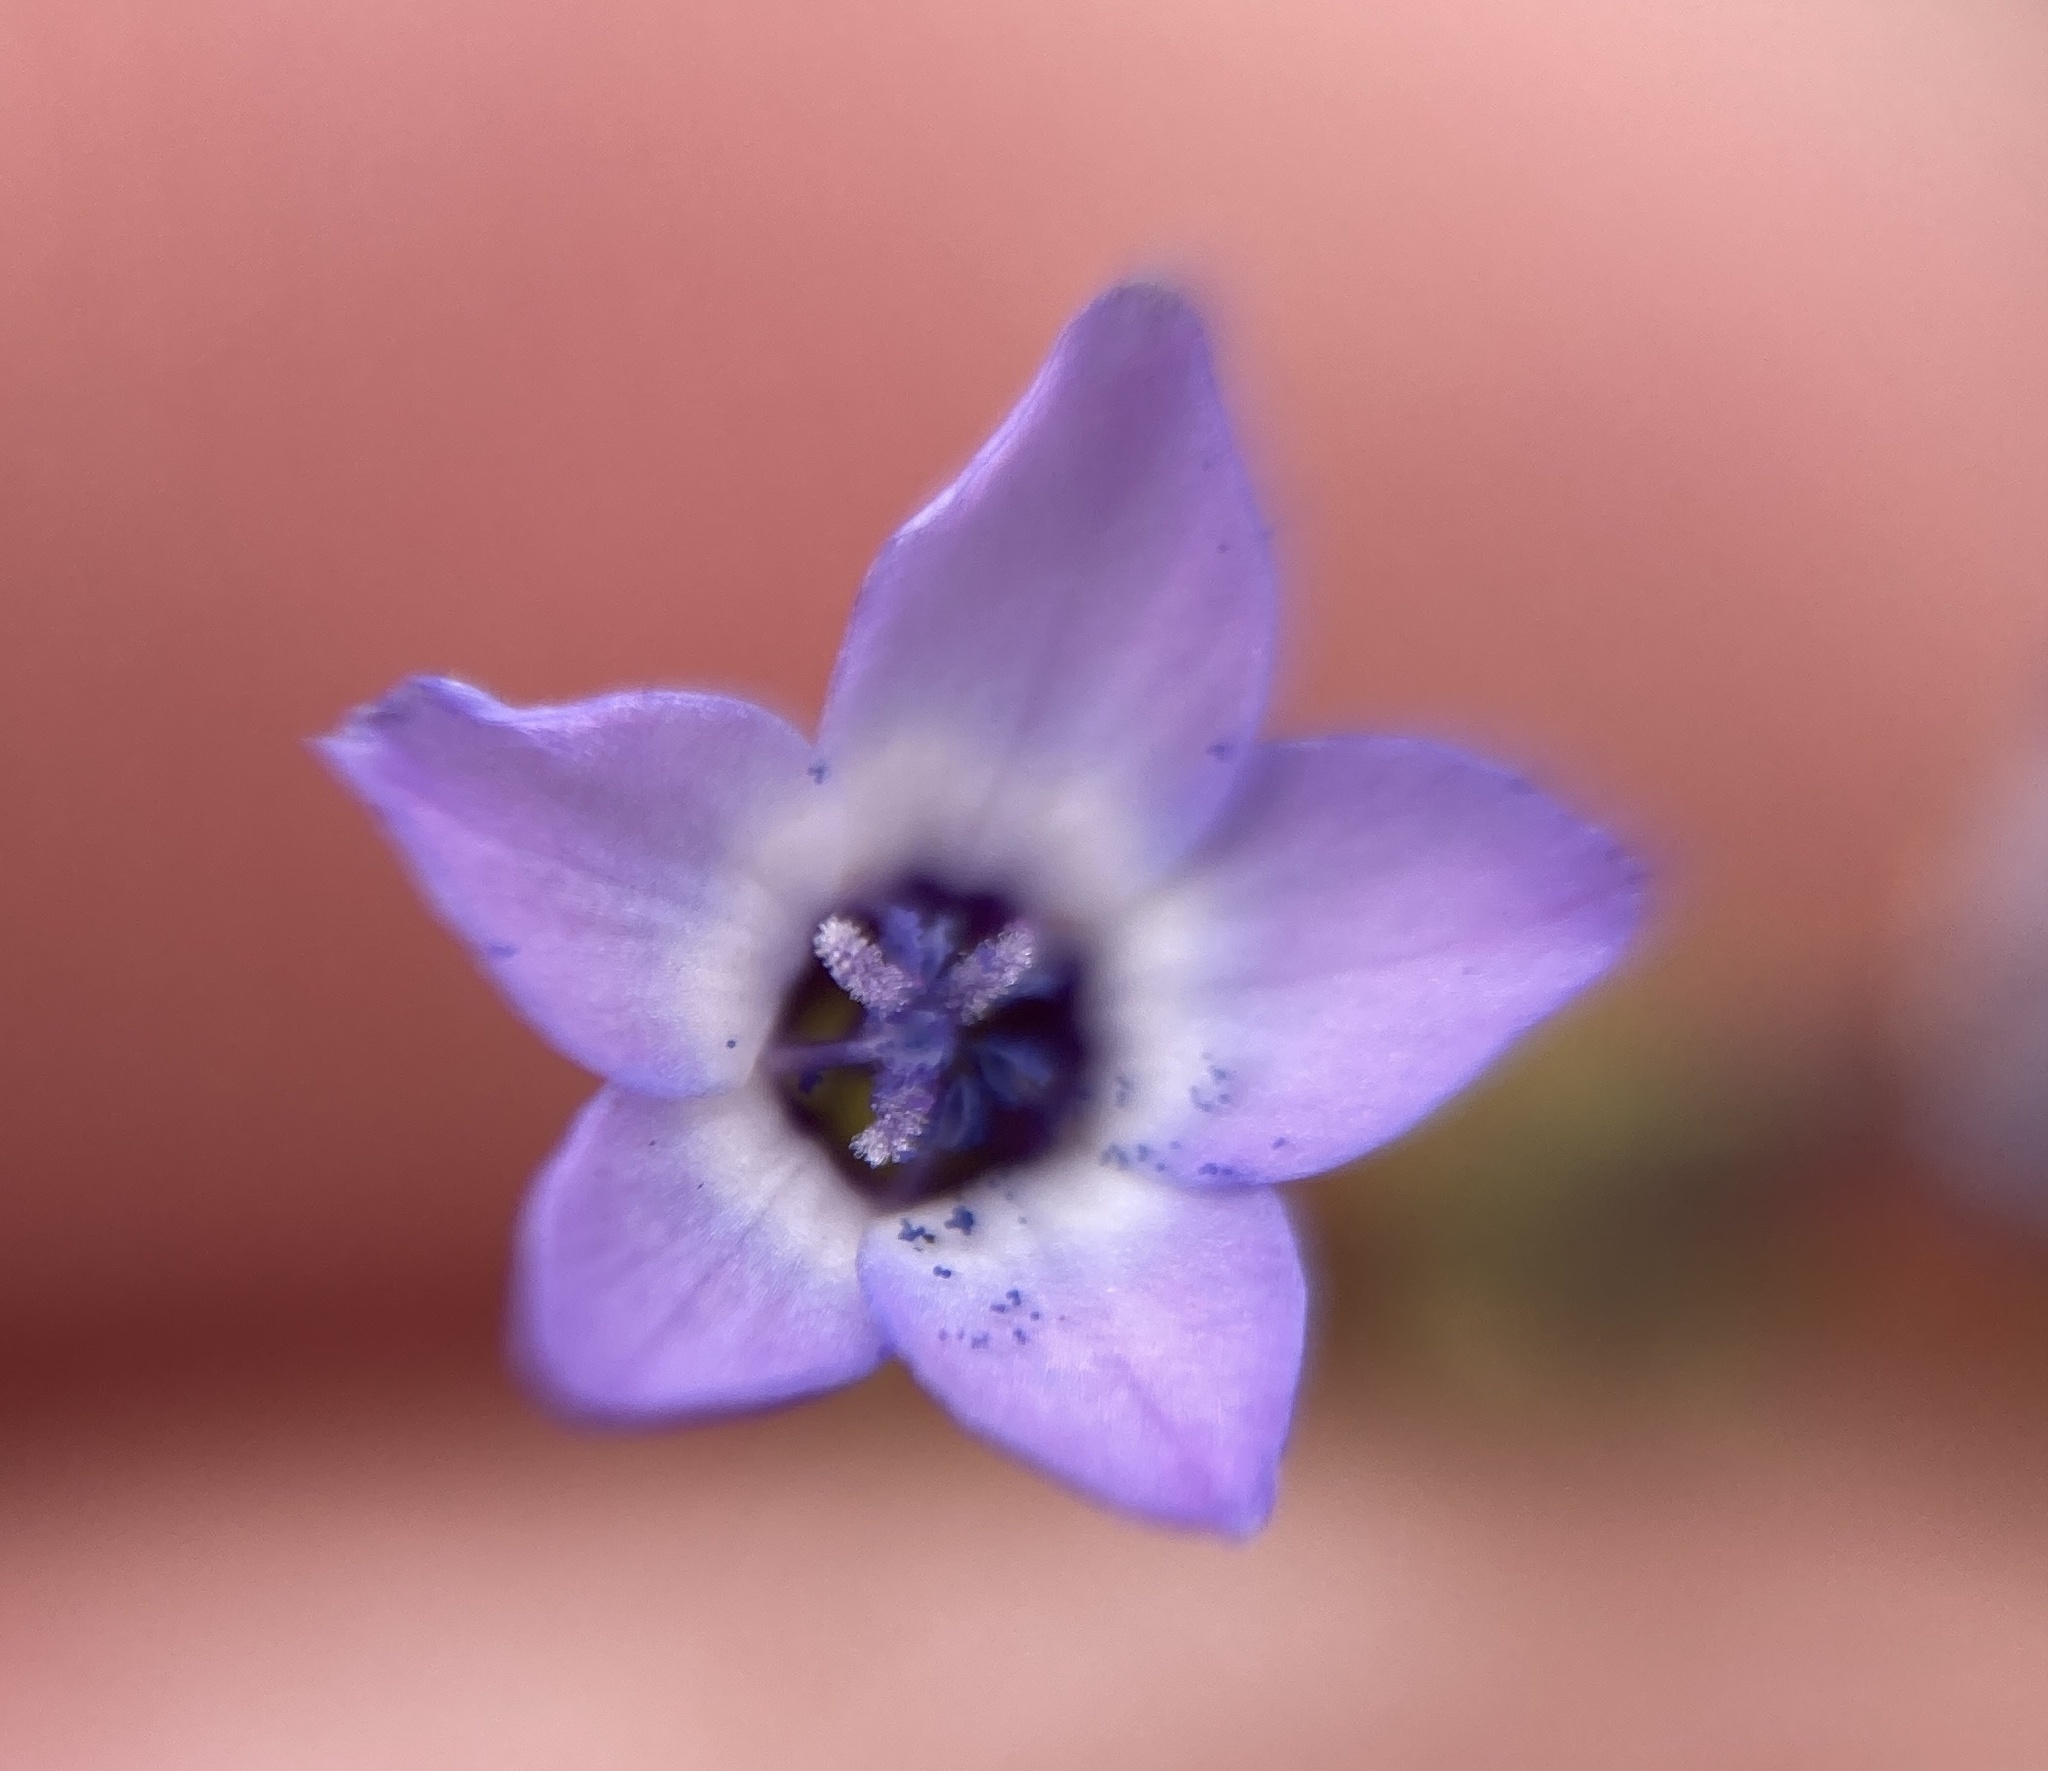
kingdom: Plantae
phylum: Tracheophyta
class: Magnoliopsida
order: Ericales
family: Polemoniaceae
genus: Gilia
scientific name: Gilia minor
